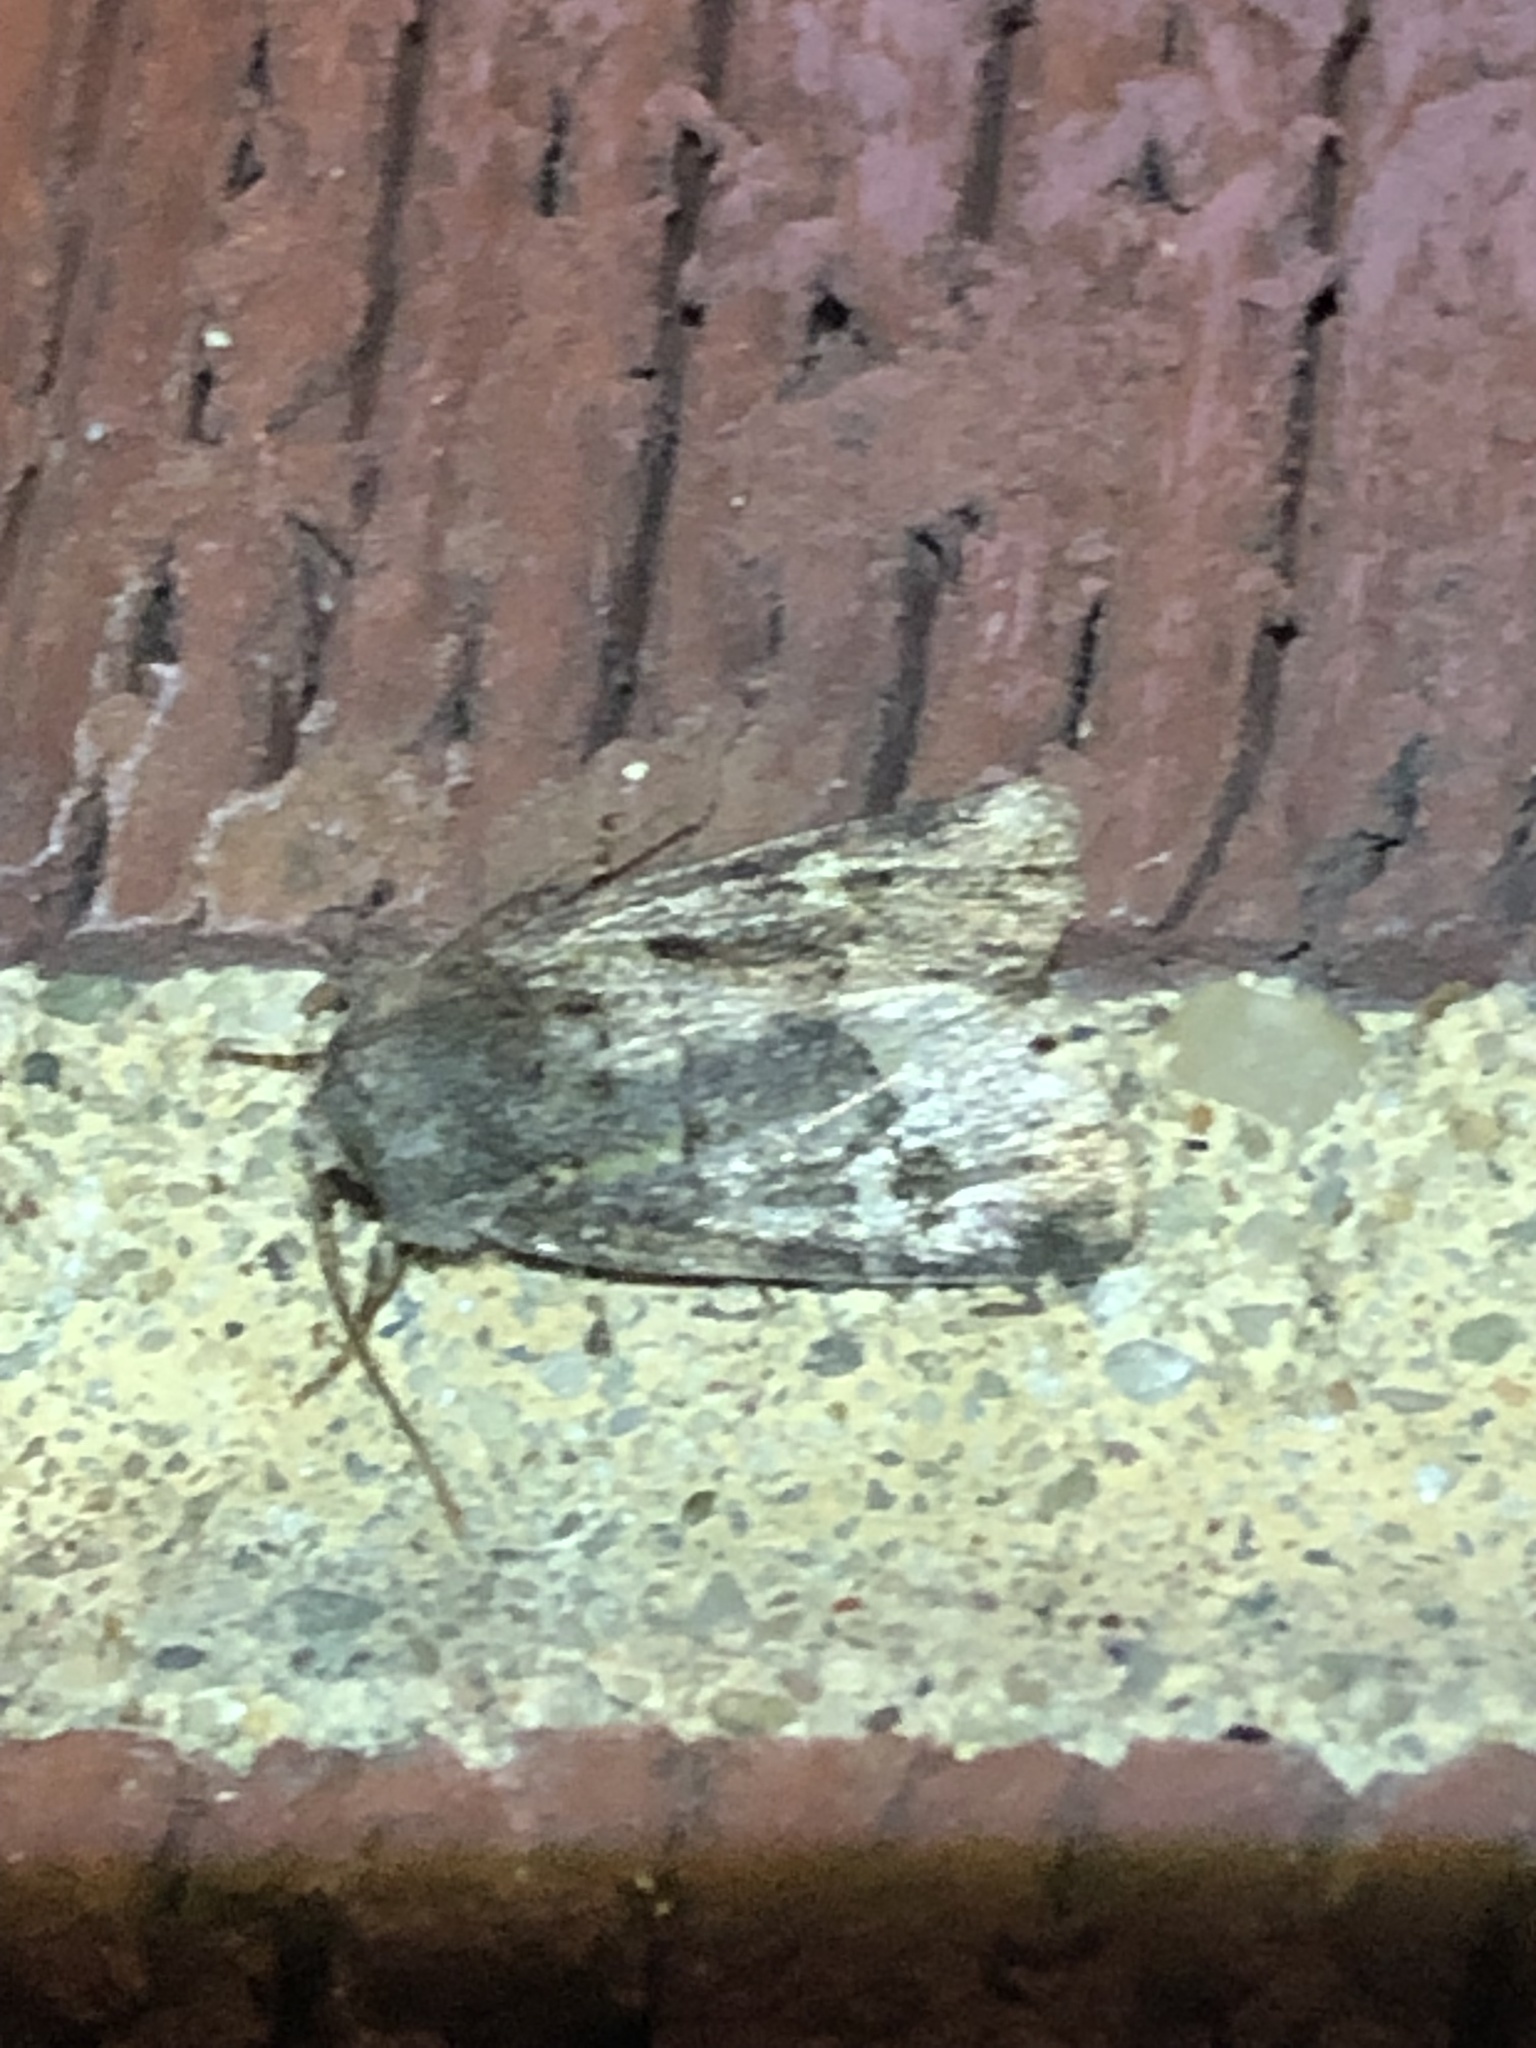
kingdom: Animalia
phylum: Arthropoda
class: Insecta
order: Lepidoptera
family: Noctuidae
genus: Lacinipolia
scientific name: Lacinipolia renigera
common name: Kidney-spotted minor
